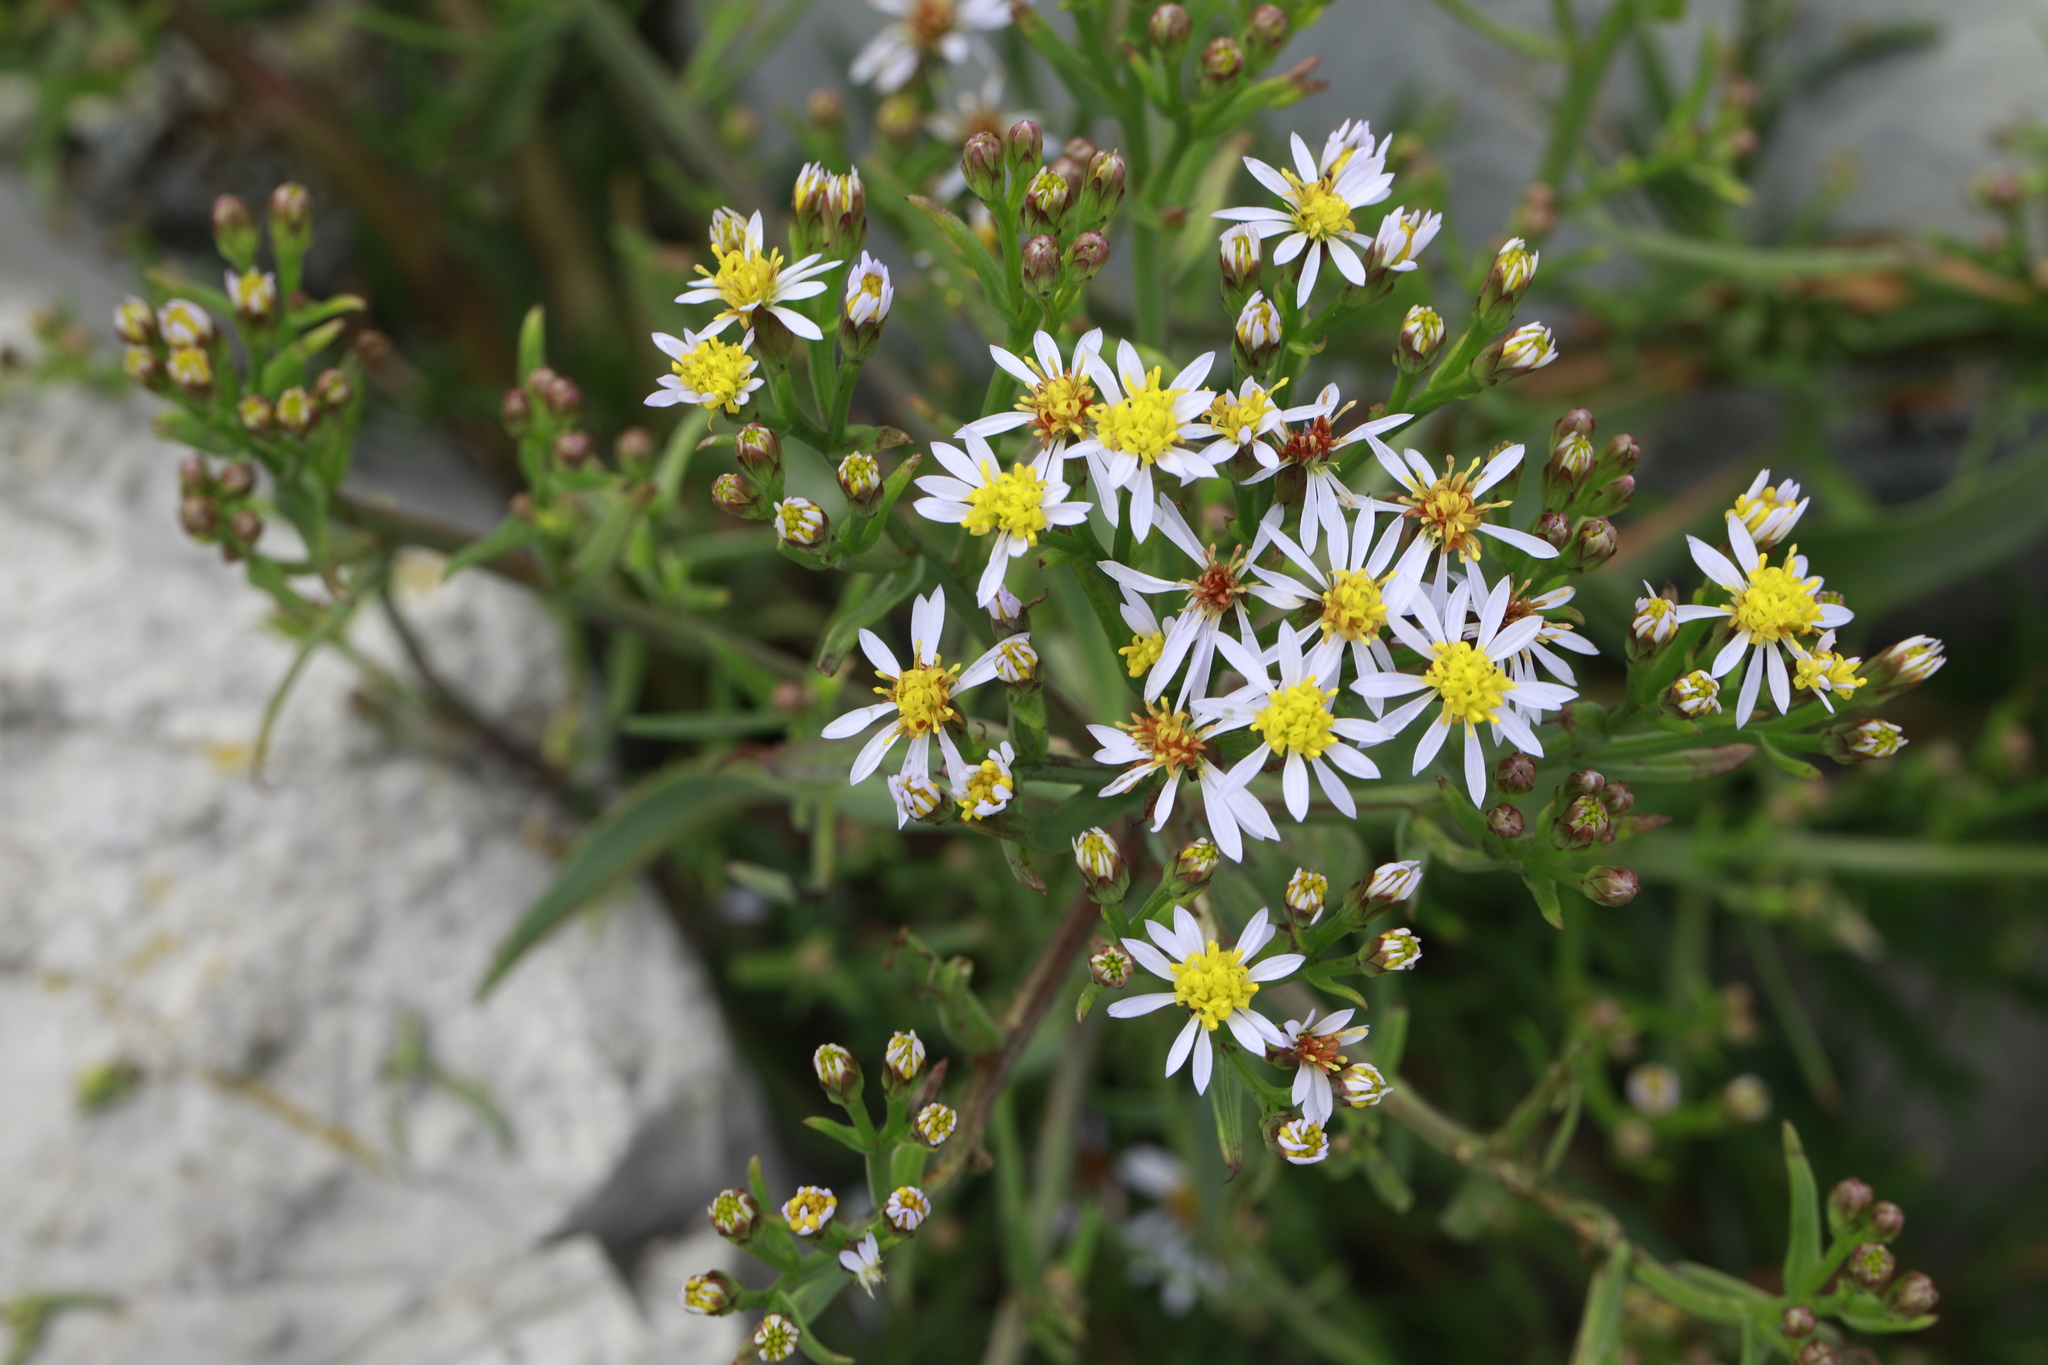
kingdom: Plantae
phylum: Tracheophyta
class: Magnoliopsida
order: Asterales
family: Asteraceae
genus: Tripolium
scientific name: Tripolium pannonicum
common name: Sea aster
